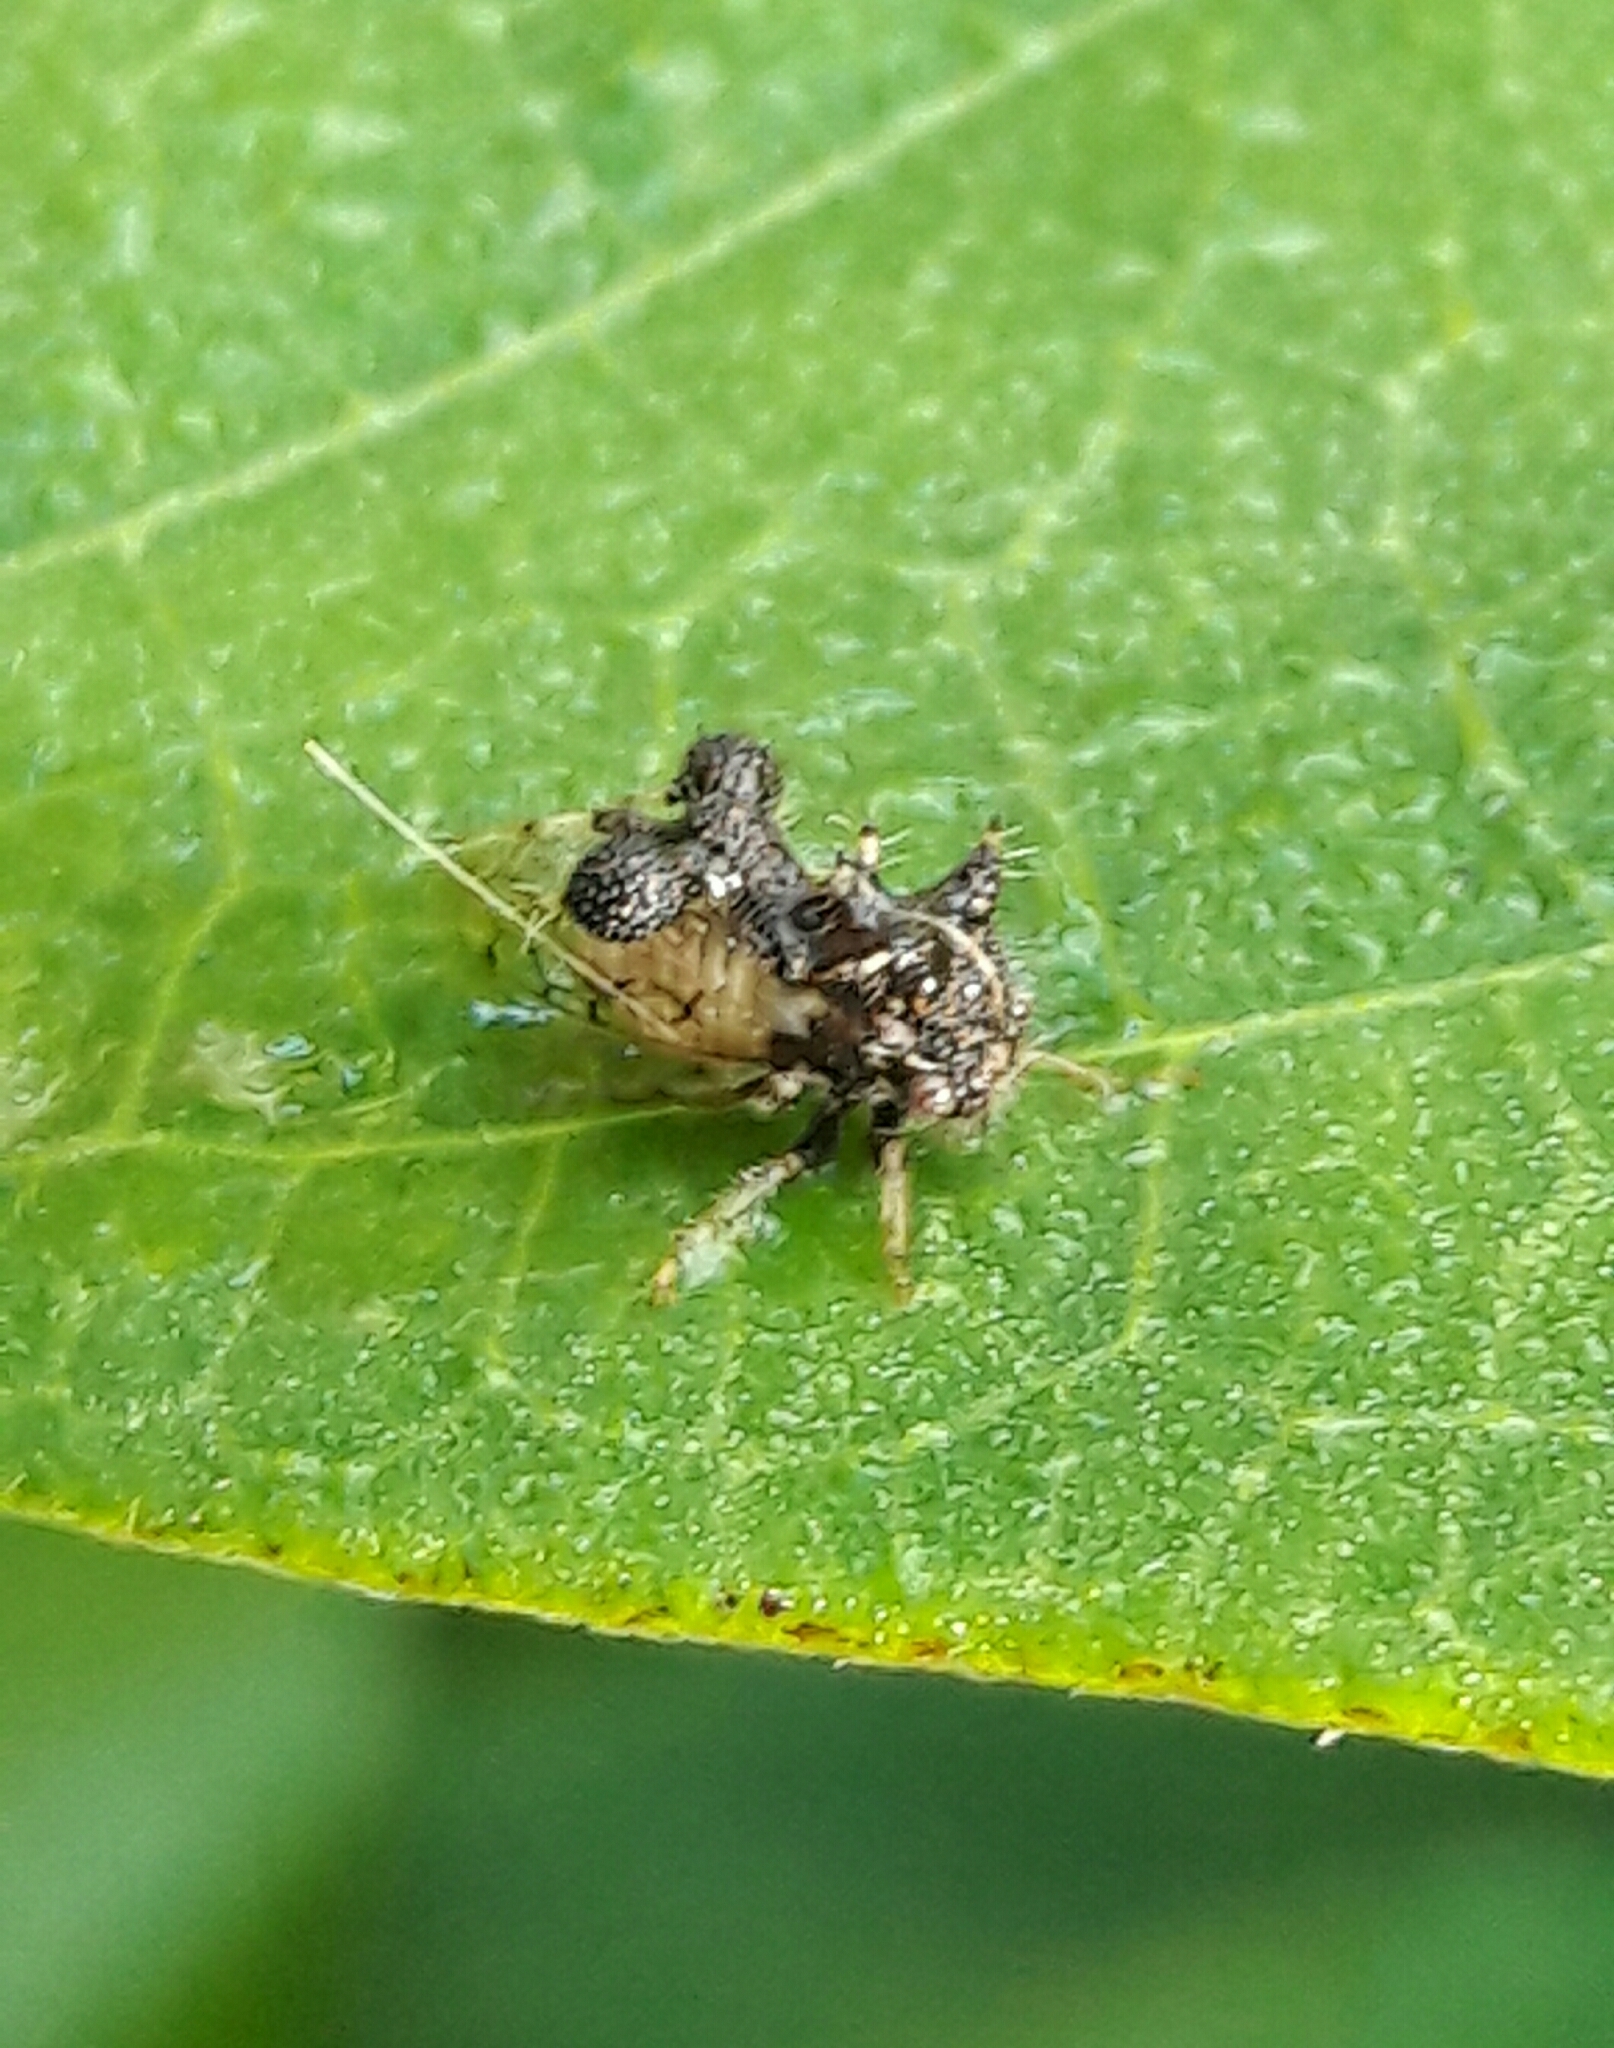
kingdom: Animalia
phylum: Arthropoda
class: Insecta
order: Hemiptera
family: Membracidae
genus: Cyphonia
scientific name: Cyphonia claviger
